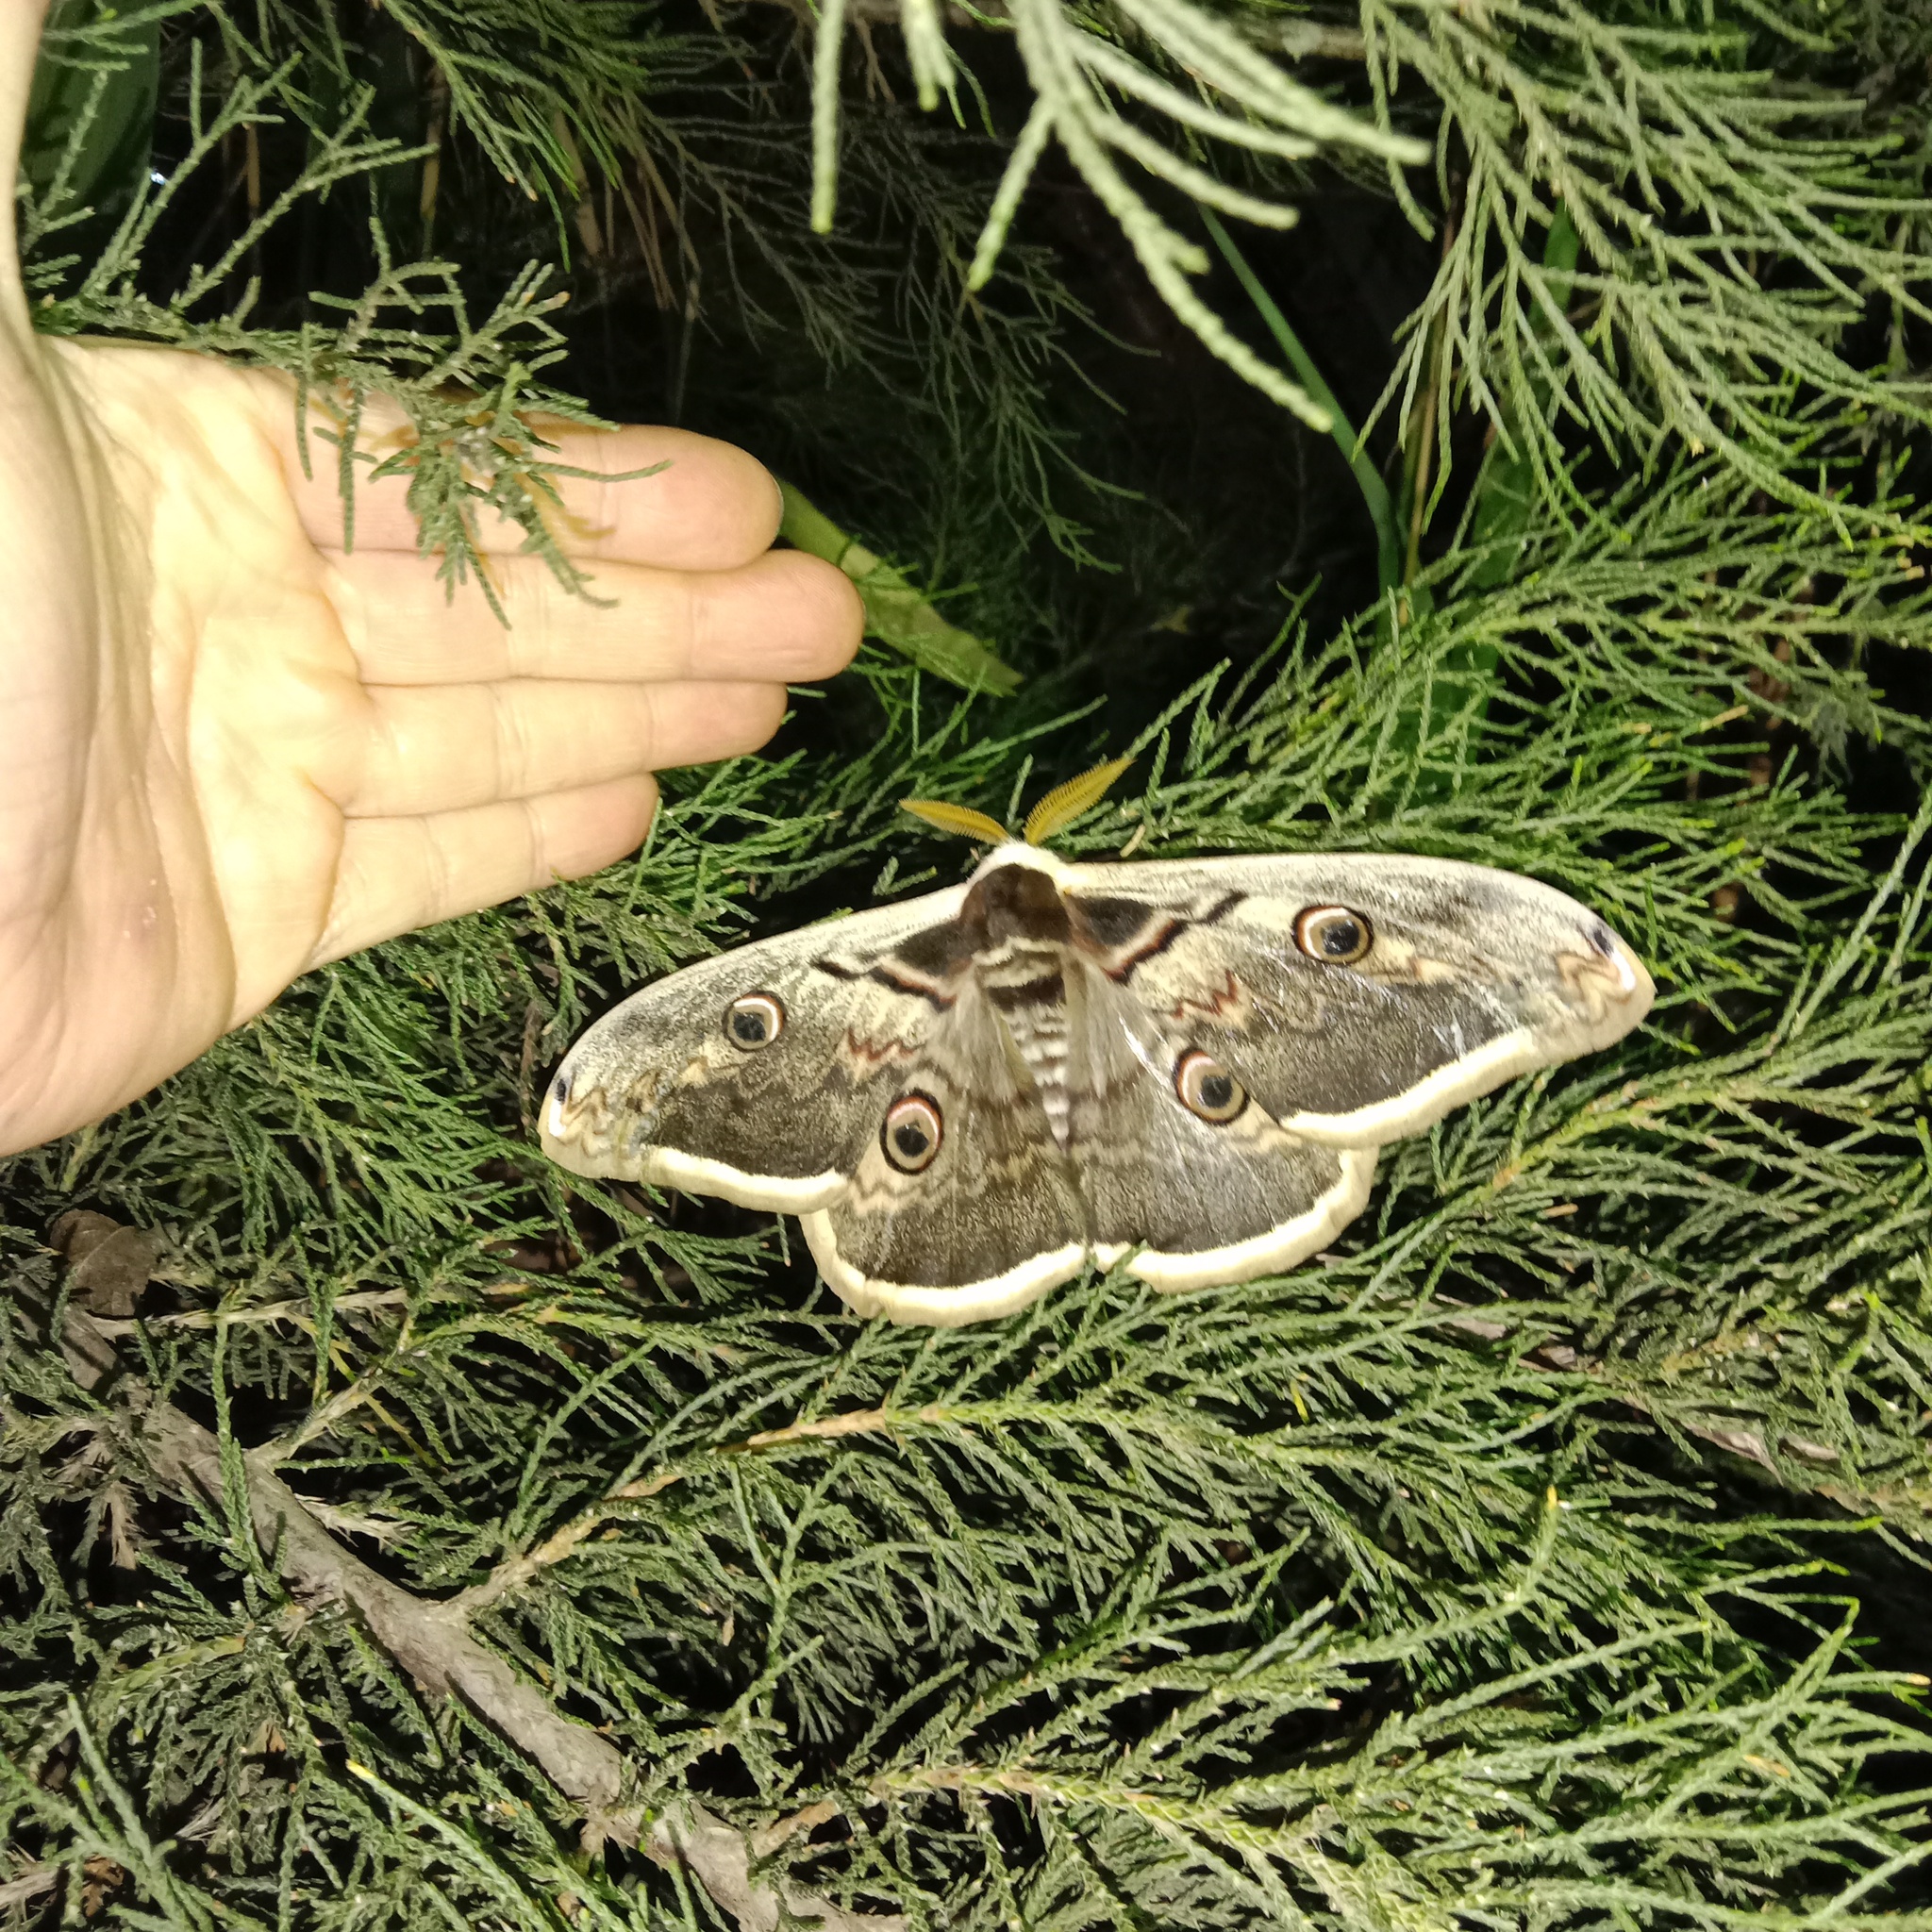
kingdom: Animalia
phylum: Arthropoda
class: Insecta
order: Lepidoptera
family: Saturniidae
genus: Saturnia
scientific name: Saturnia pyri
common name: Great peacock moth
